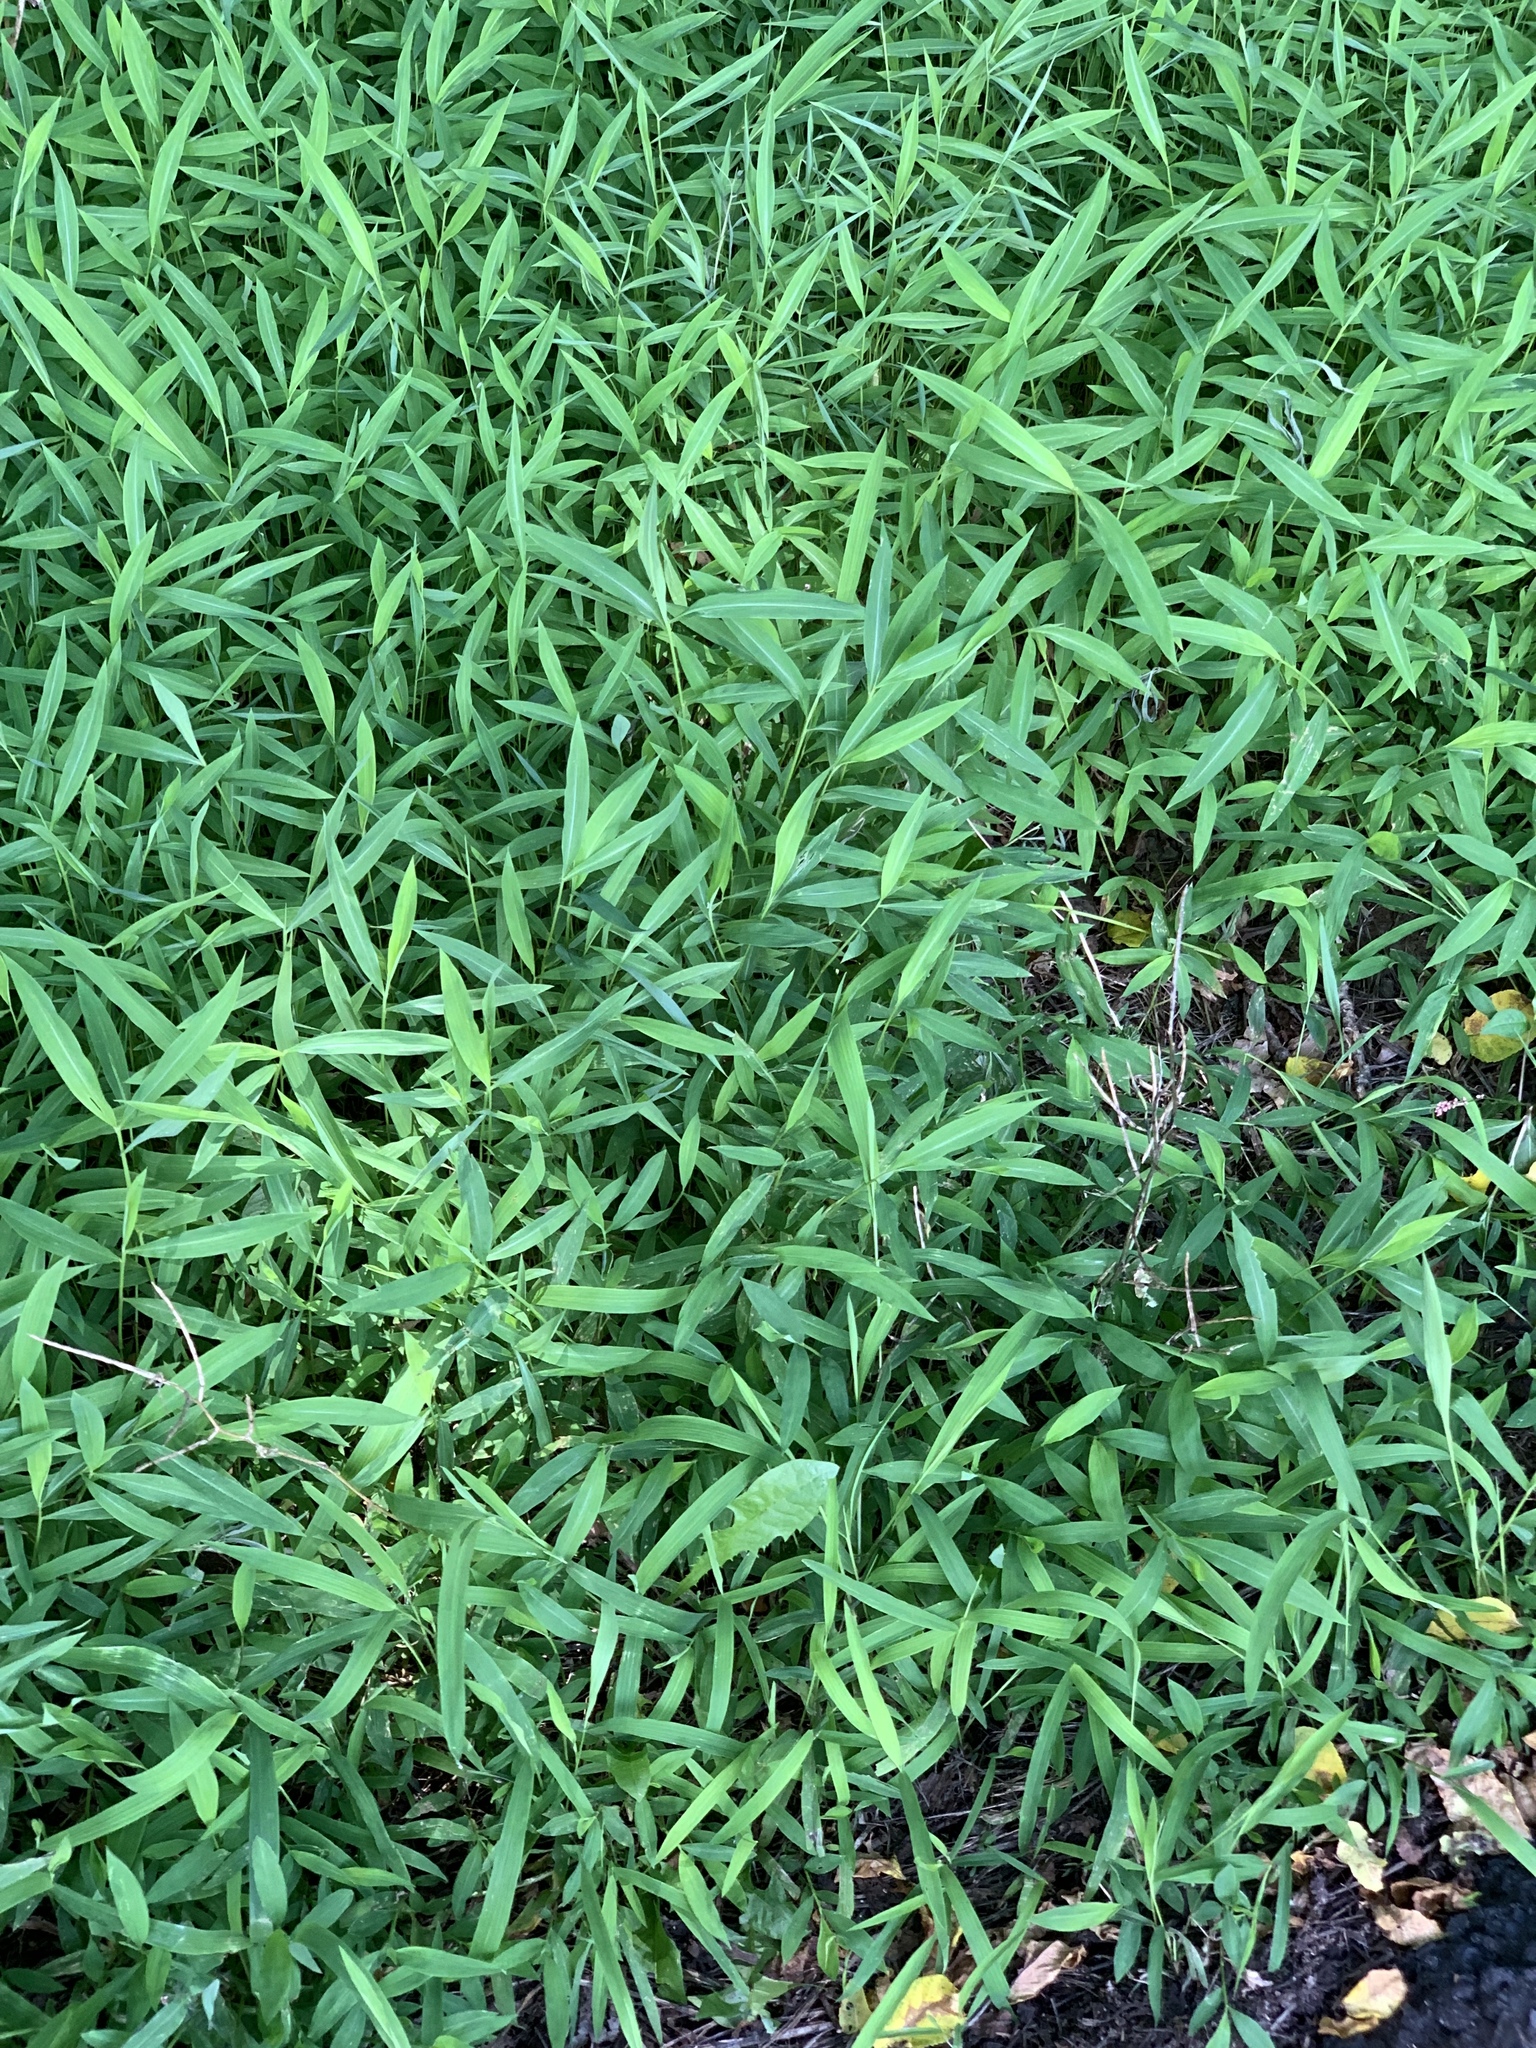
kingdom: Plantae
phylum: Tracheophyta
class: Liliopsida
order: Poales
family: Poaceae
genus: Microstegium
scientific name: Microstegium vimineum
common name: Japanese stiltgrass
